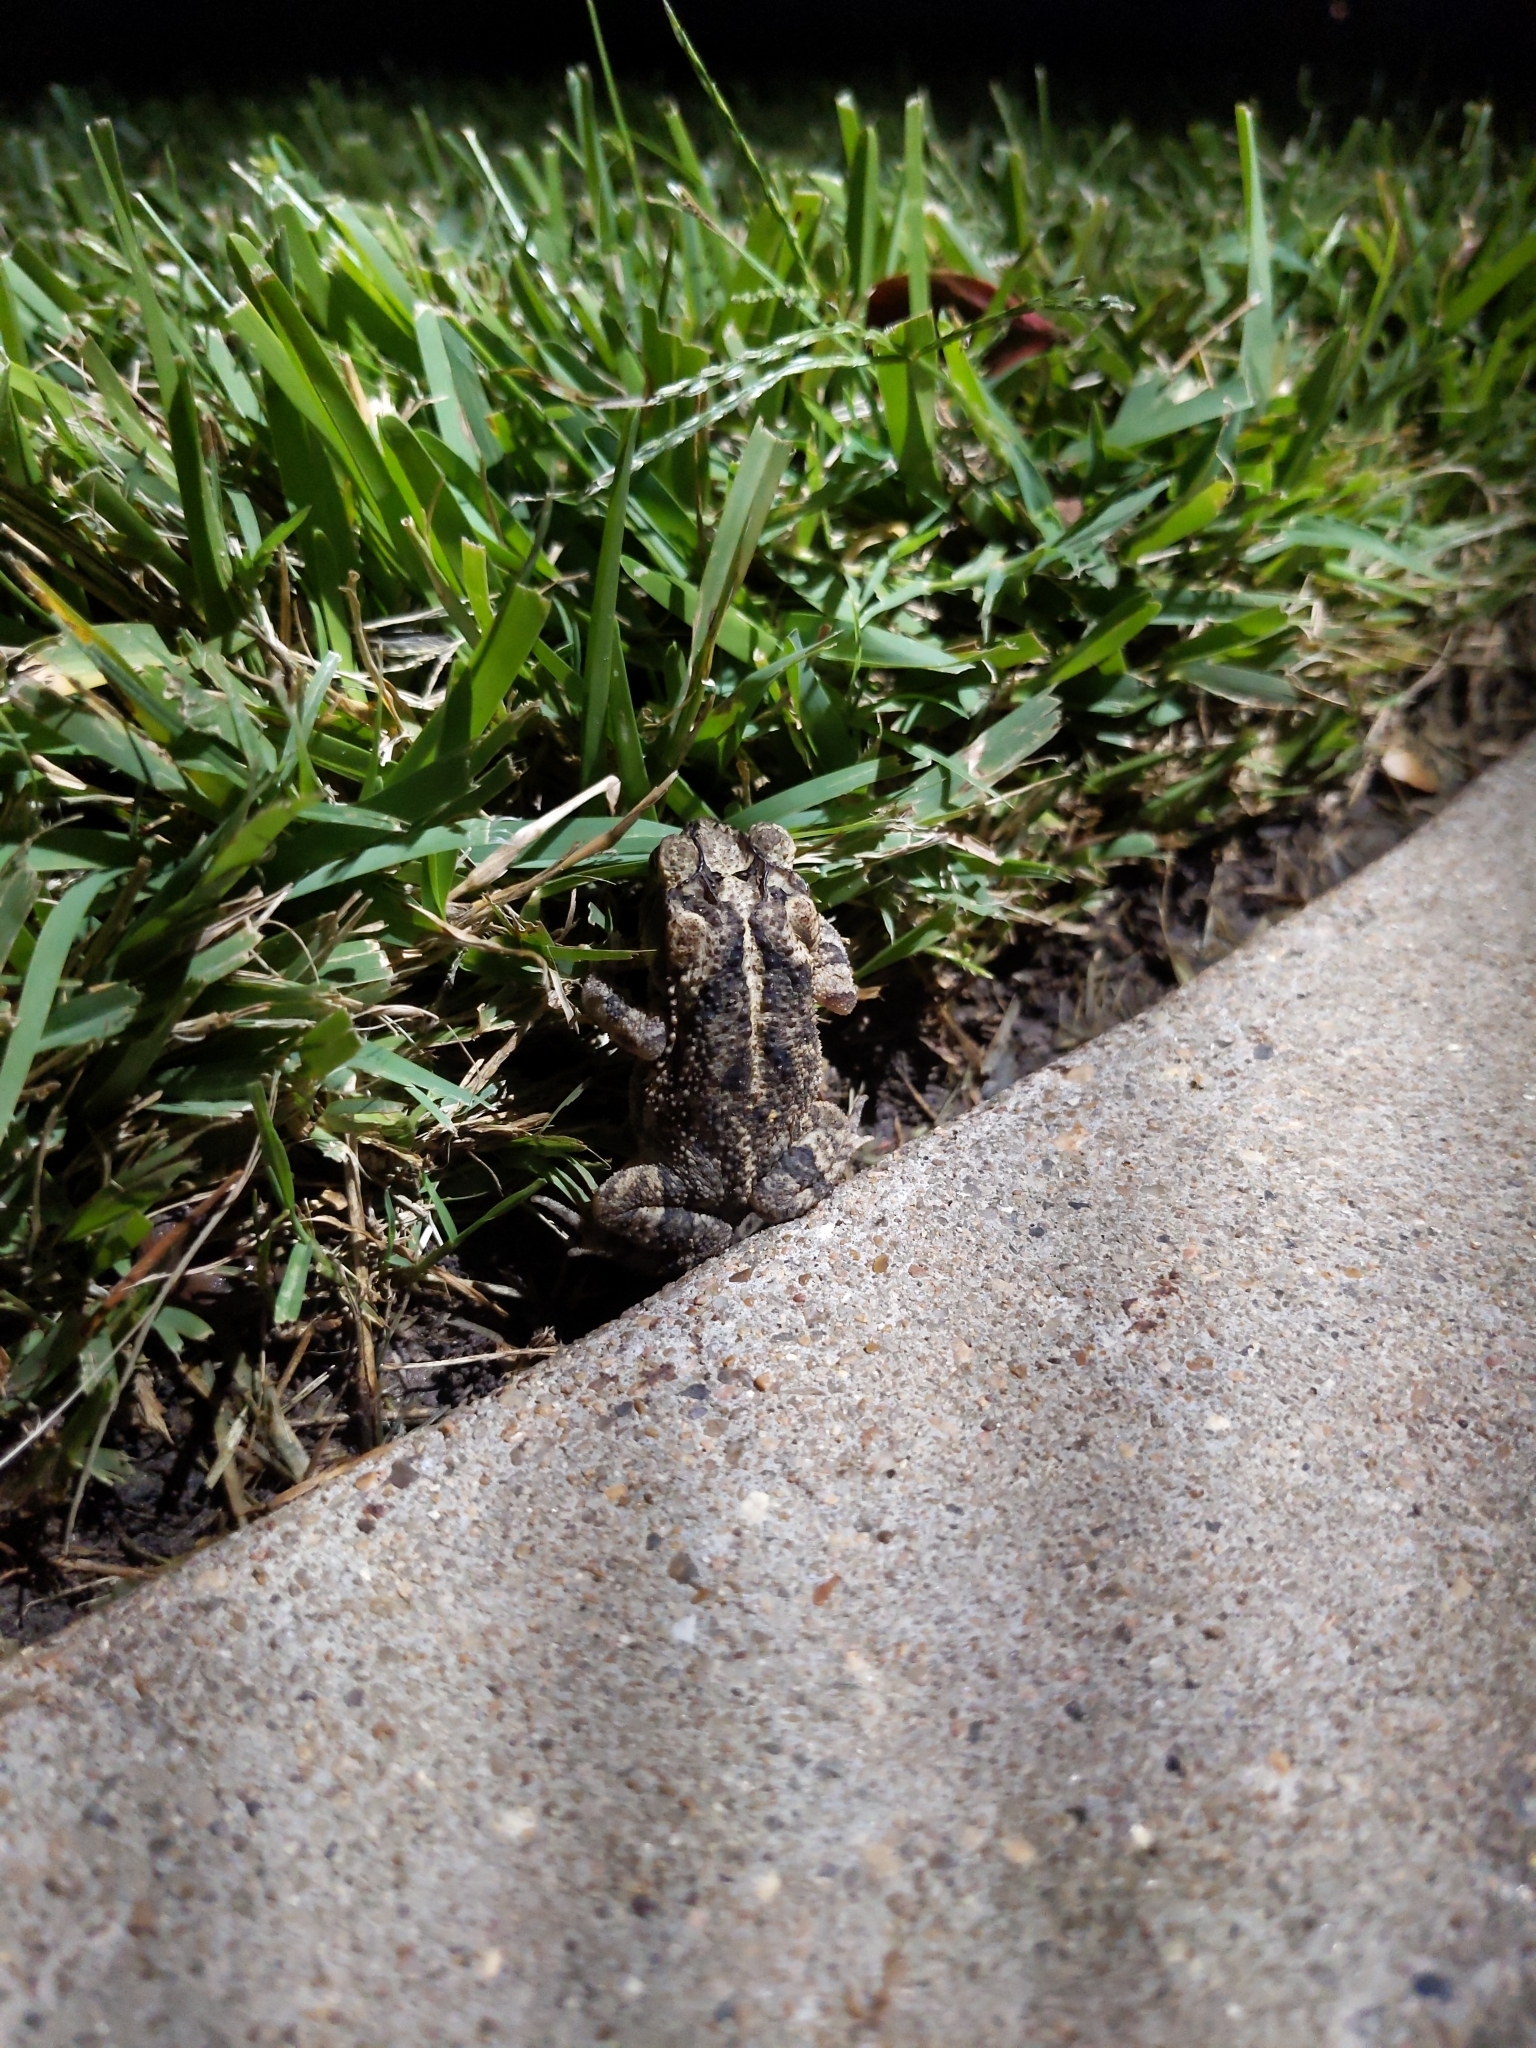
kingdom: Animalia
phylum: Chordata
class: Amphibia
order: Anura
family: Bufonidae
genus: Incilius
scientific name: Incilius nebulifer
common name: Gulf coast toad
